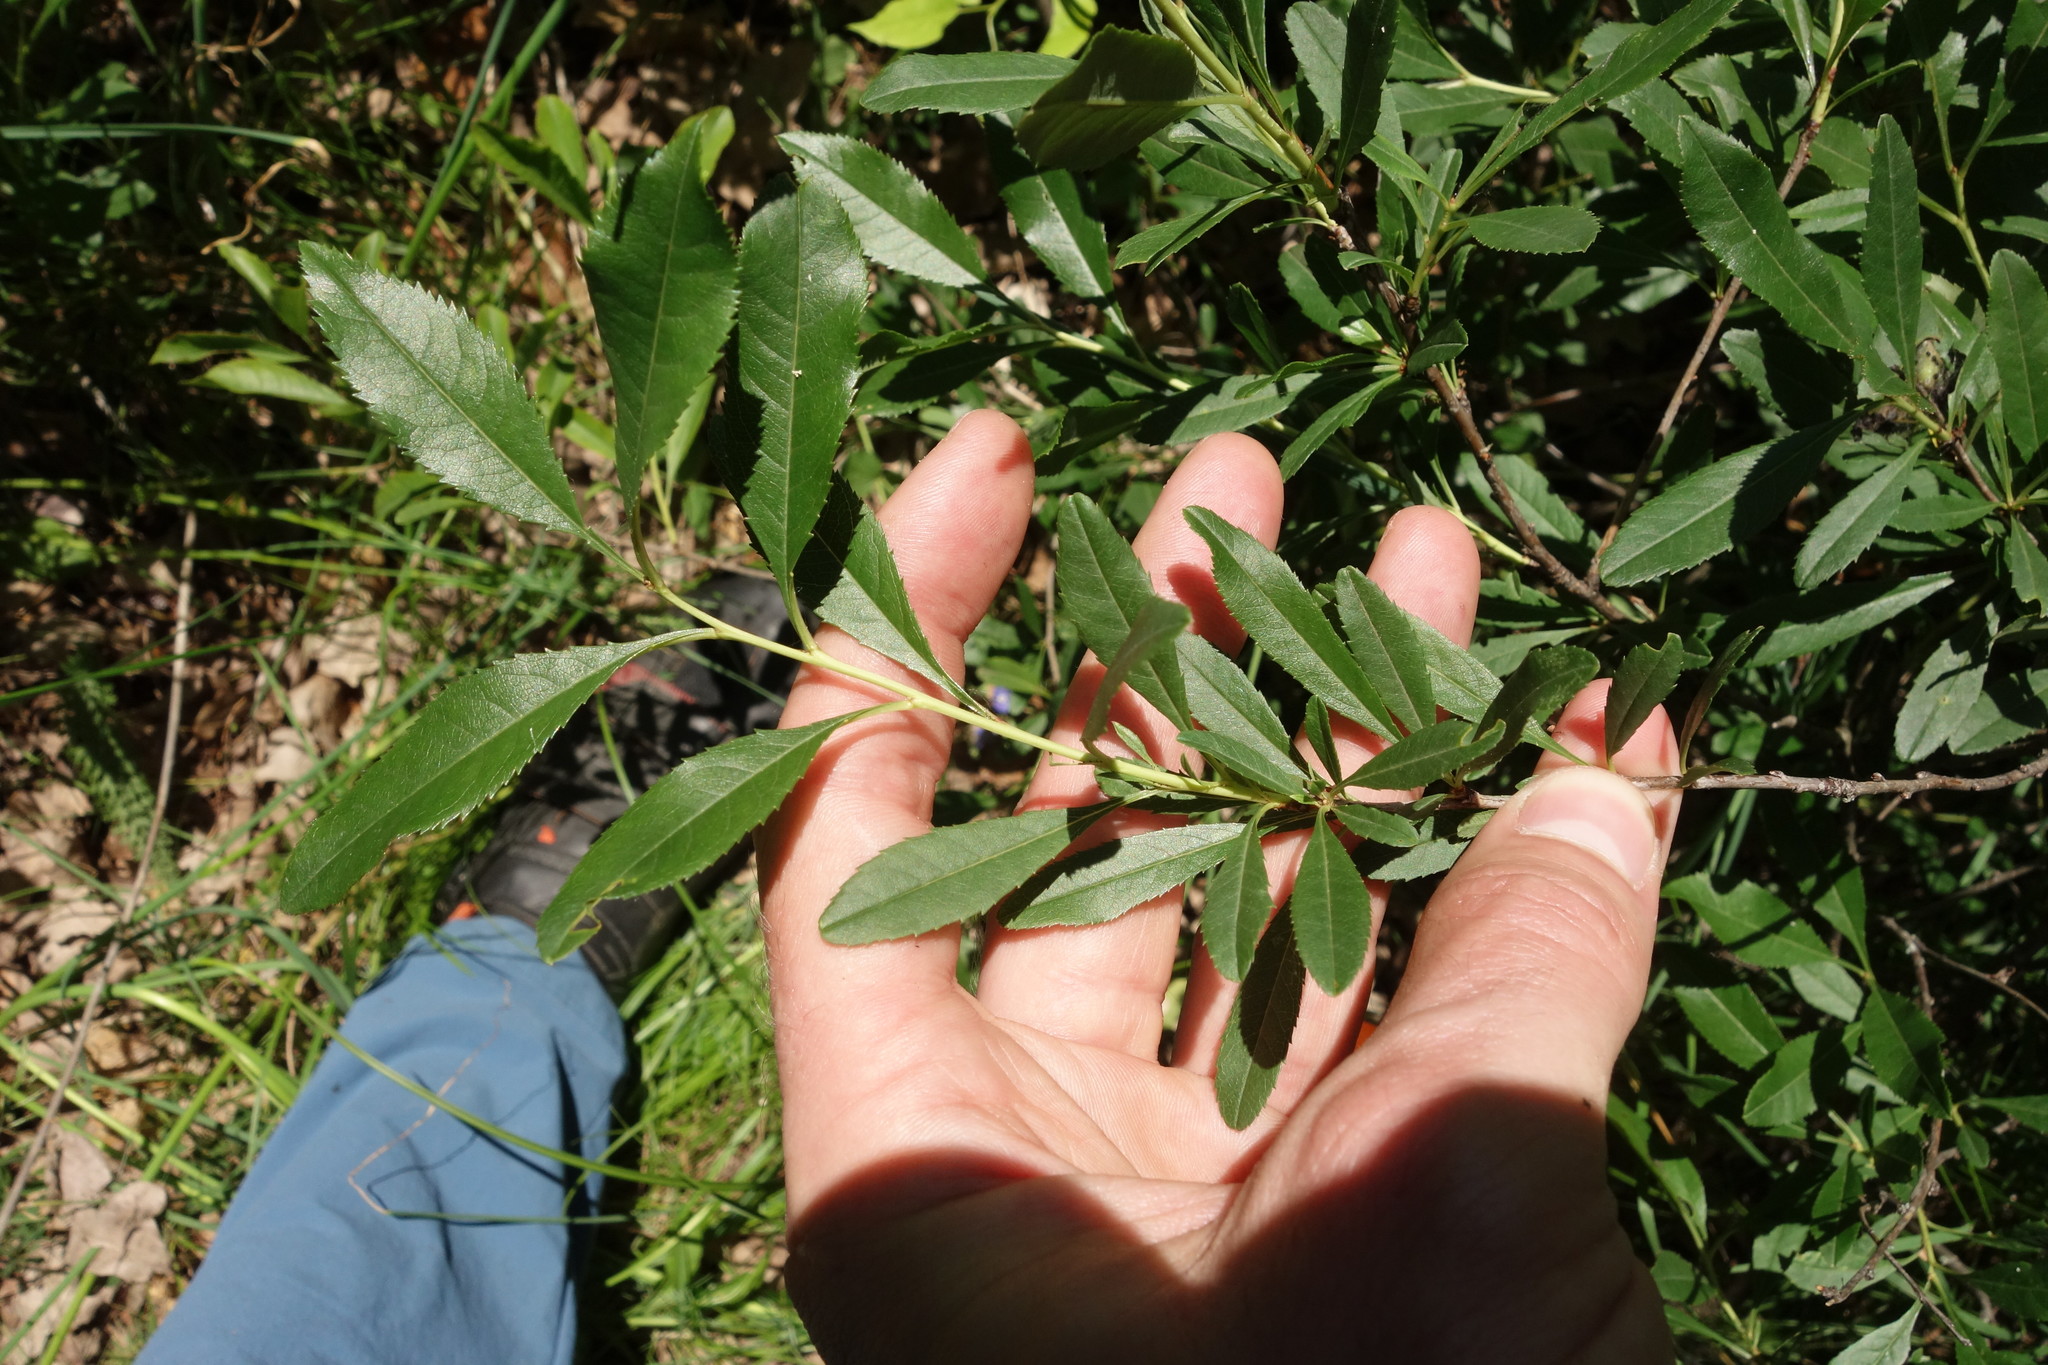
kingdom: Plantae
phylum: Tracheophyta
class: Magnoliopsida
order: Rosales
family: Rosaceae
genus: Prunus
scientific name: Prunus tenella
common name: Dwarf russian almond
